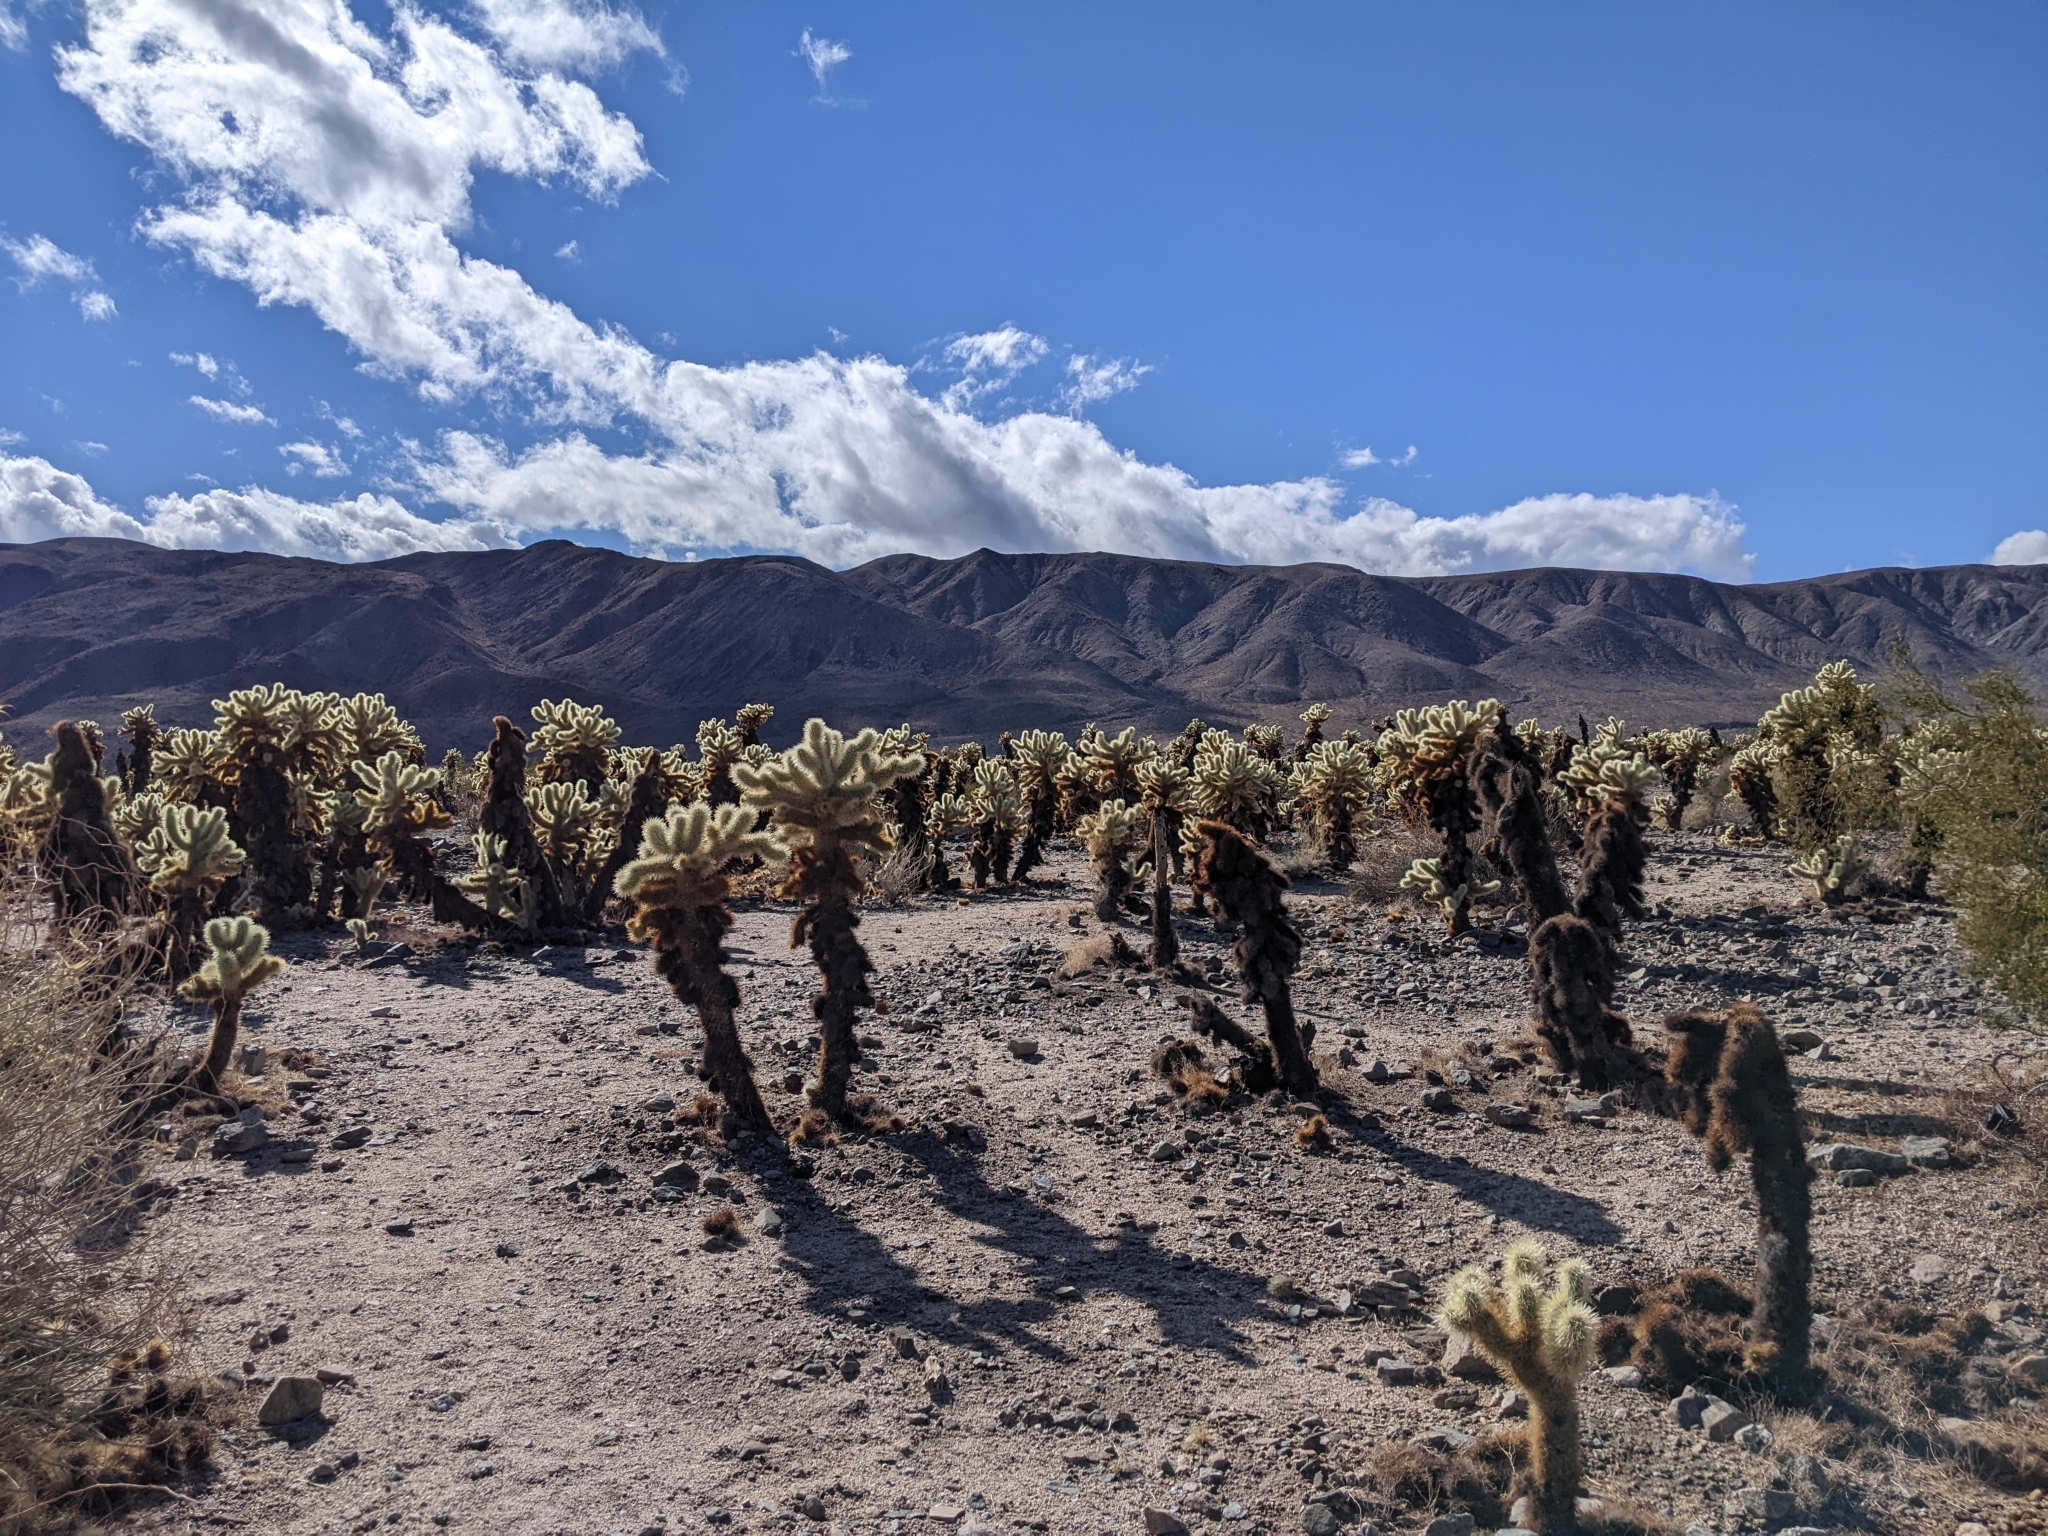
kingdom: Plantae
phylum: Tracheophyta
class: Magnoliopsida
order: Caryophyllales
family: Cactaceae
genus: Cylindropuntia
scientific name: Cylindropuntia fosbergii
